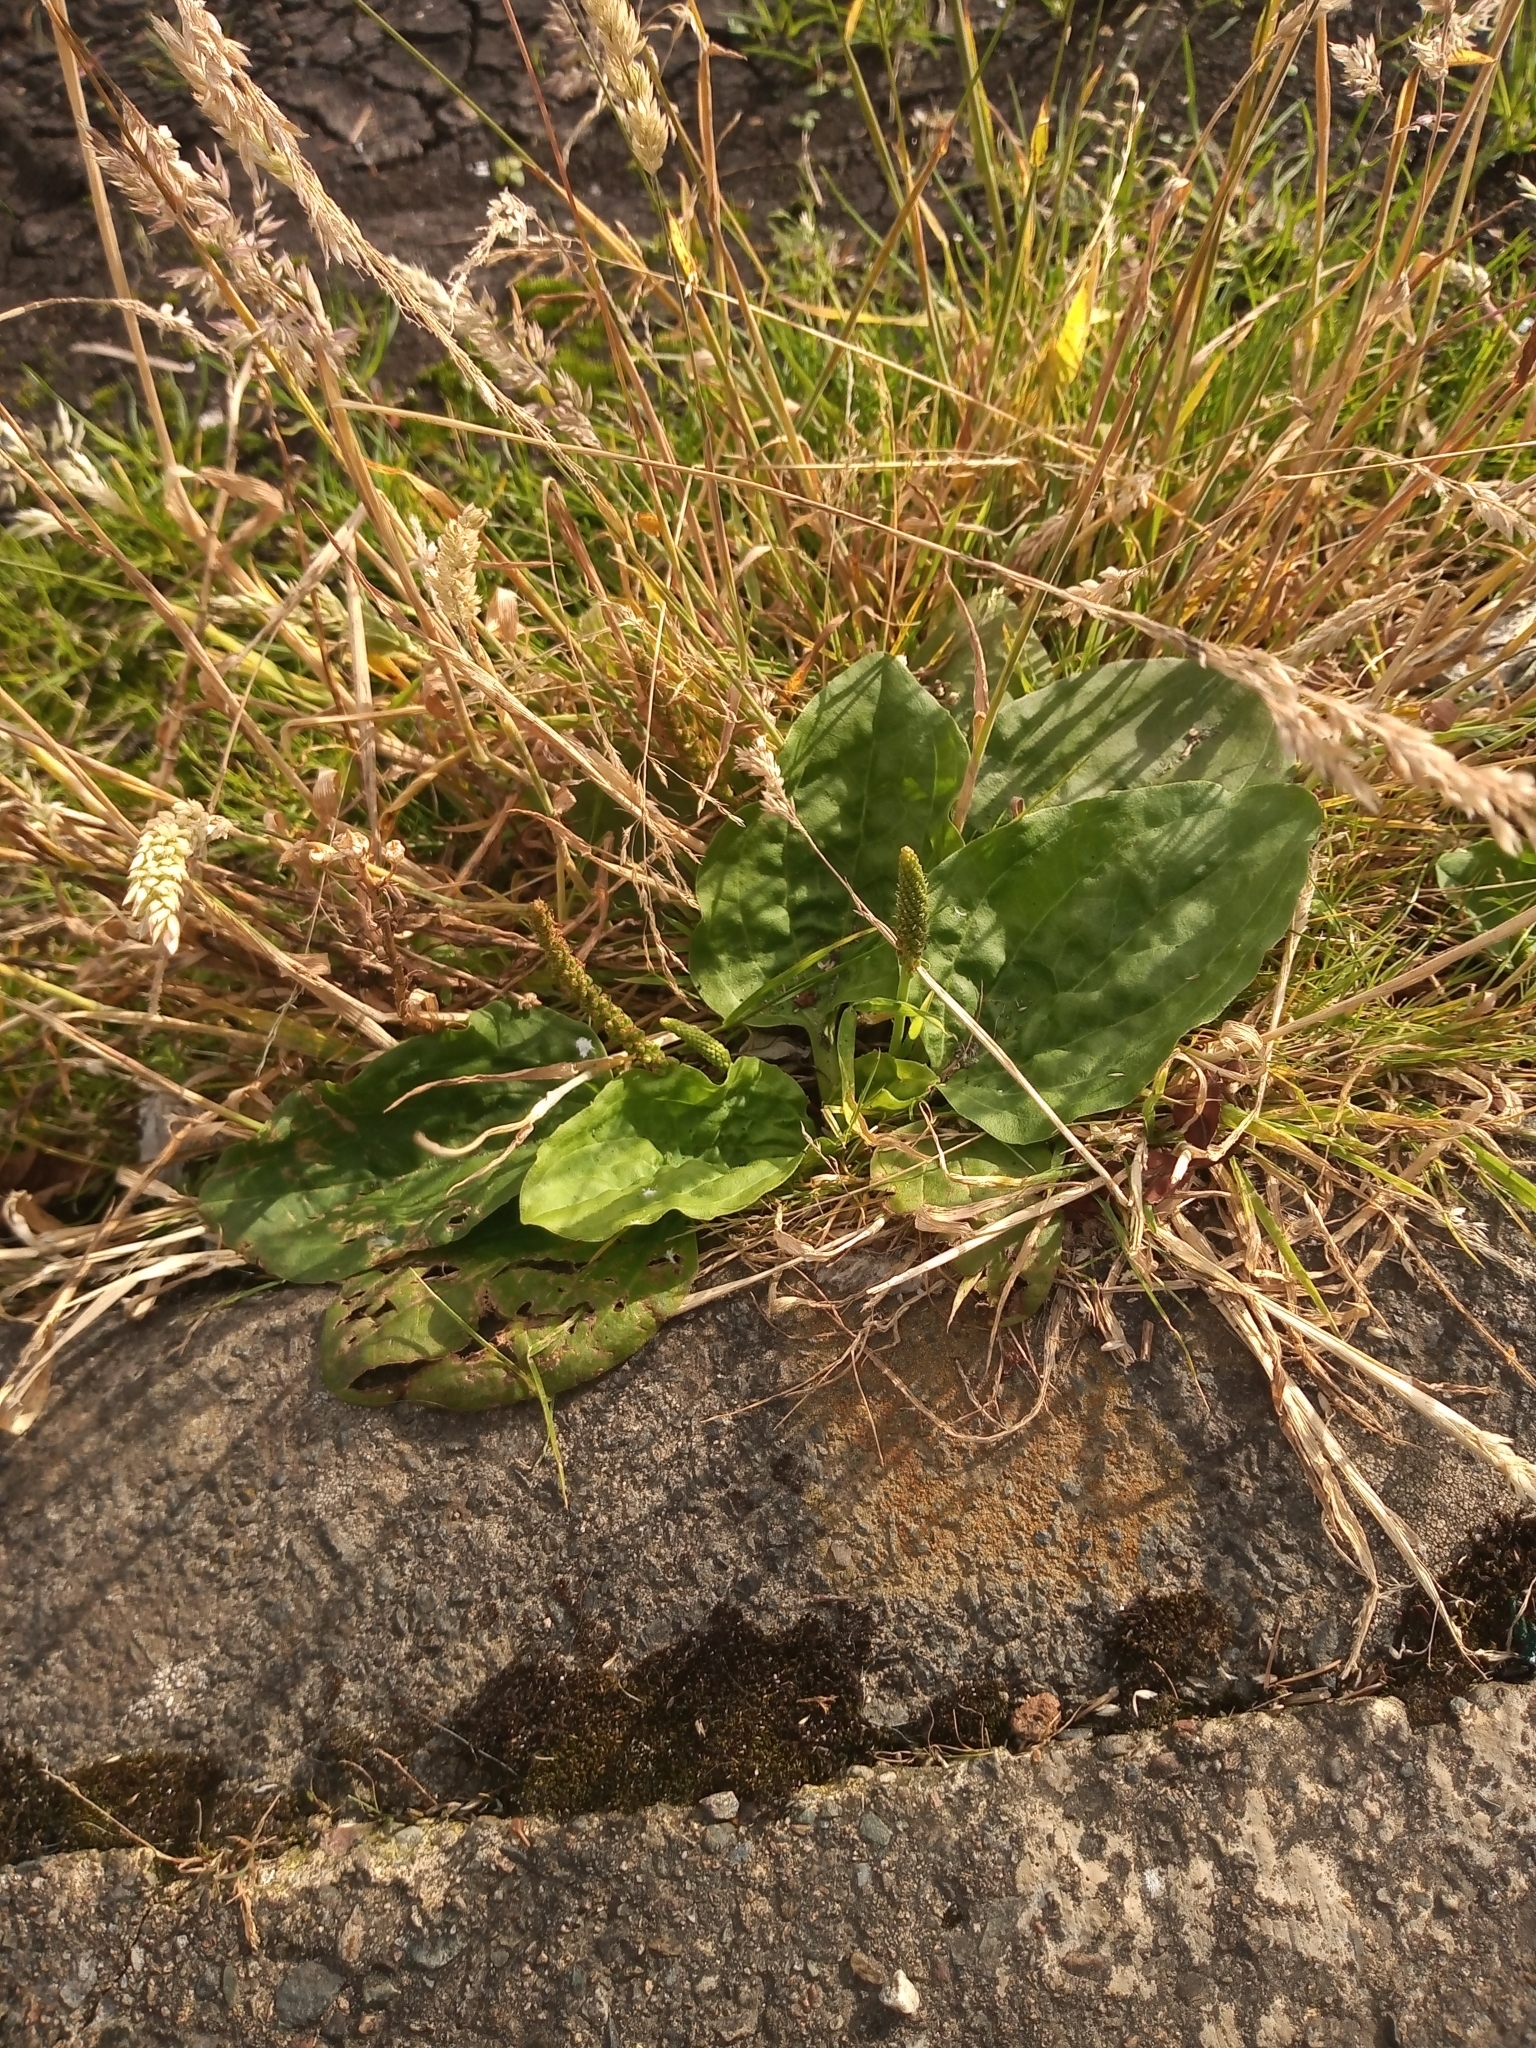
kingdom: Plantae
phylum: Tracheophyta
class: Magnoliopsida
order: Lamiales
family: Plantaginaceae
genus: Plantago
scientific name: Plantago major
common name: Common plantain
